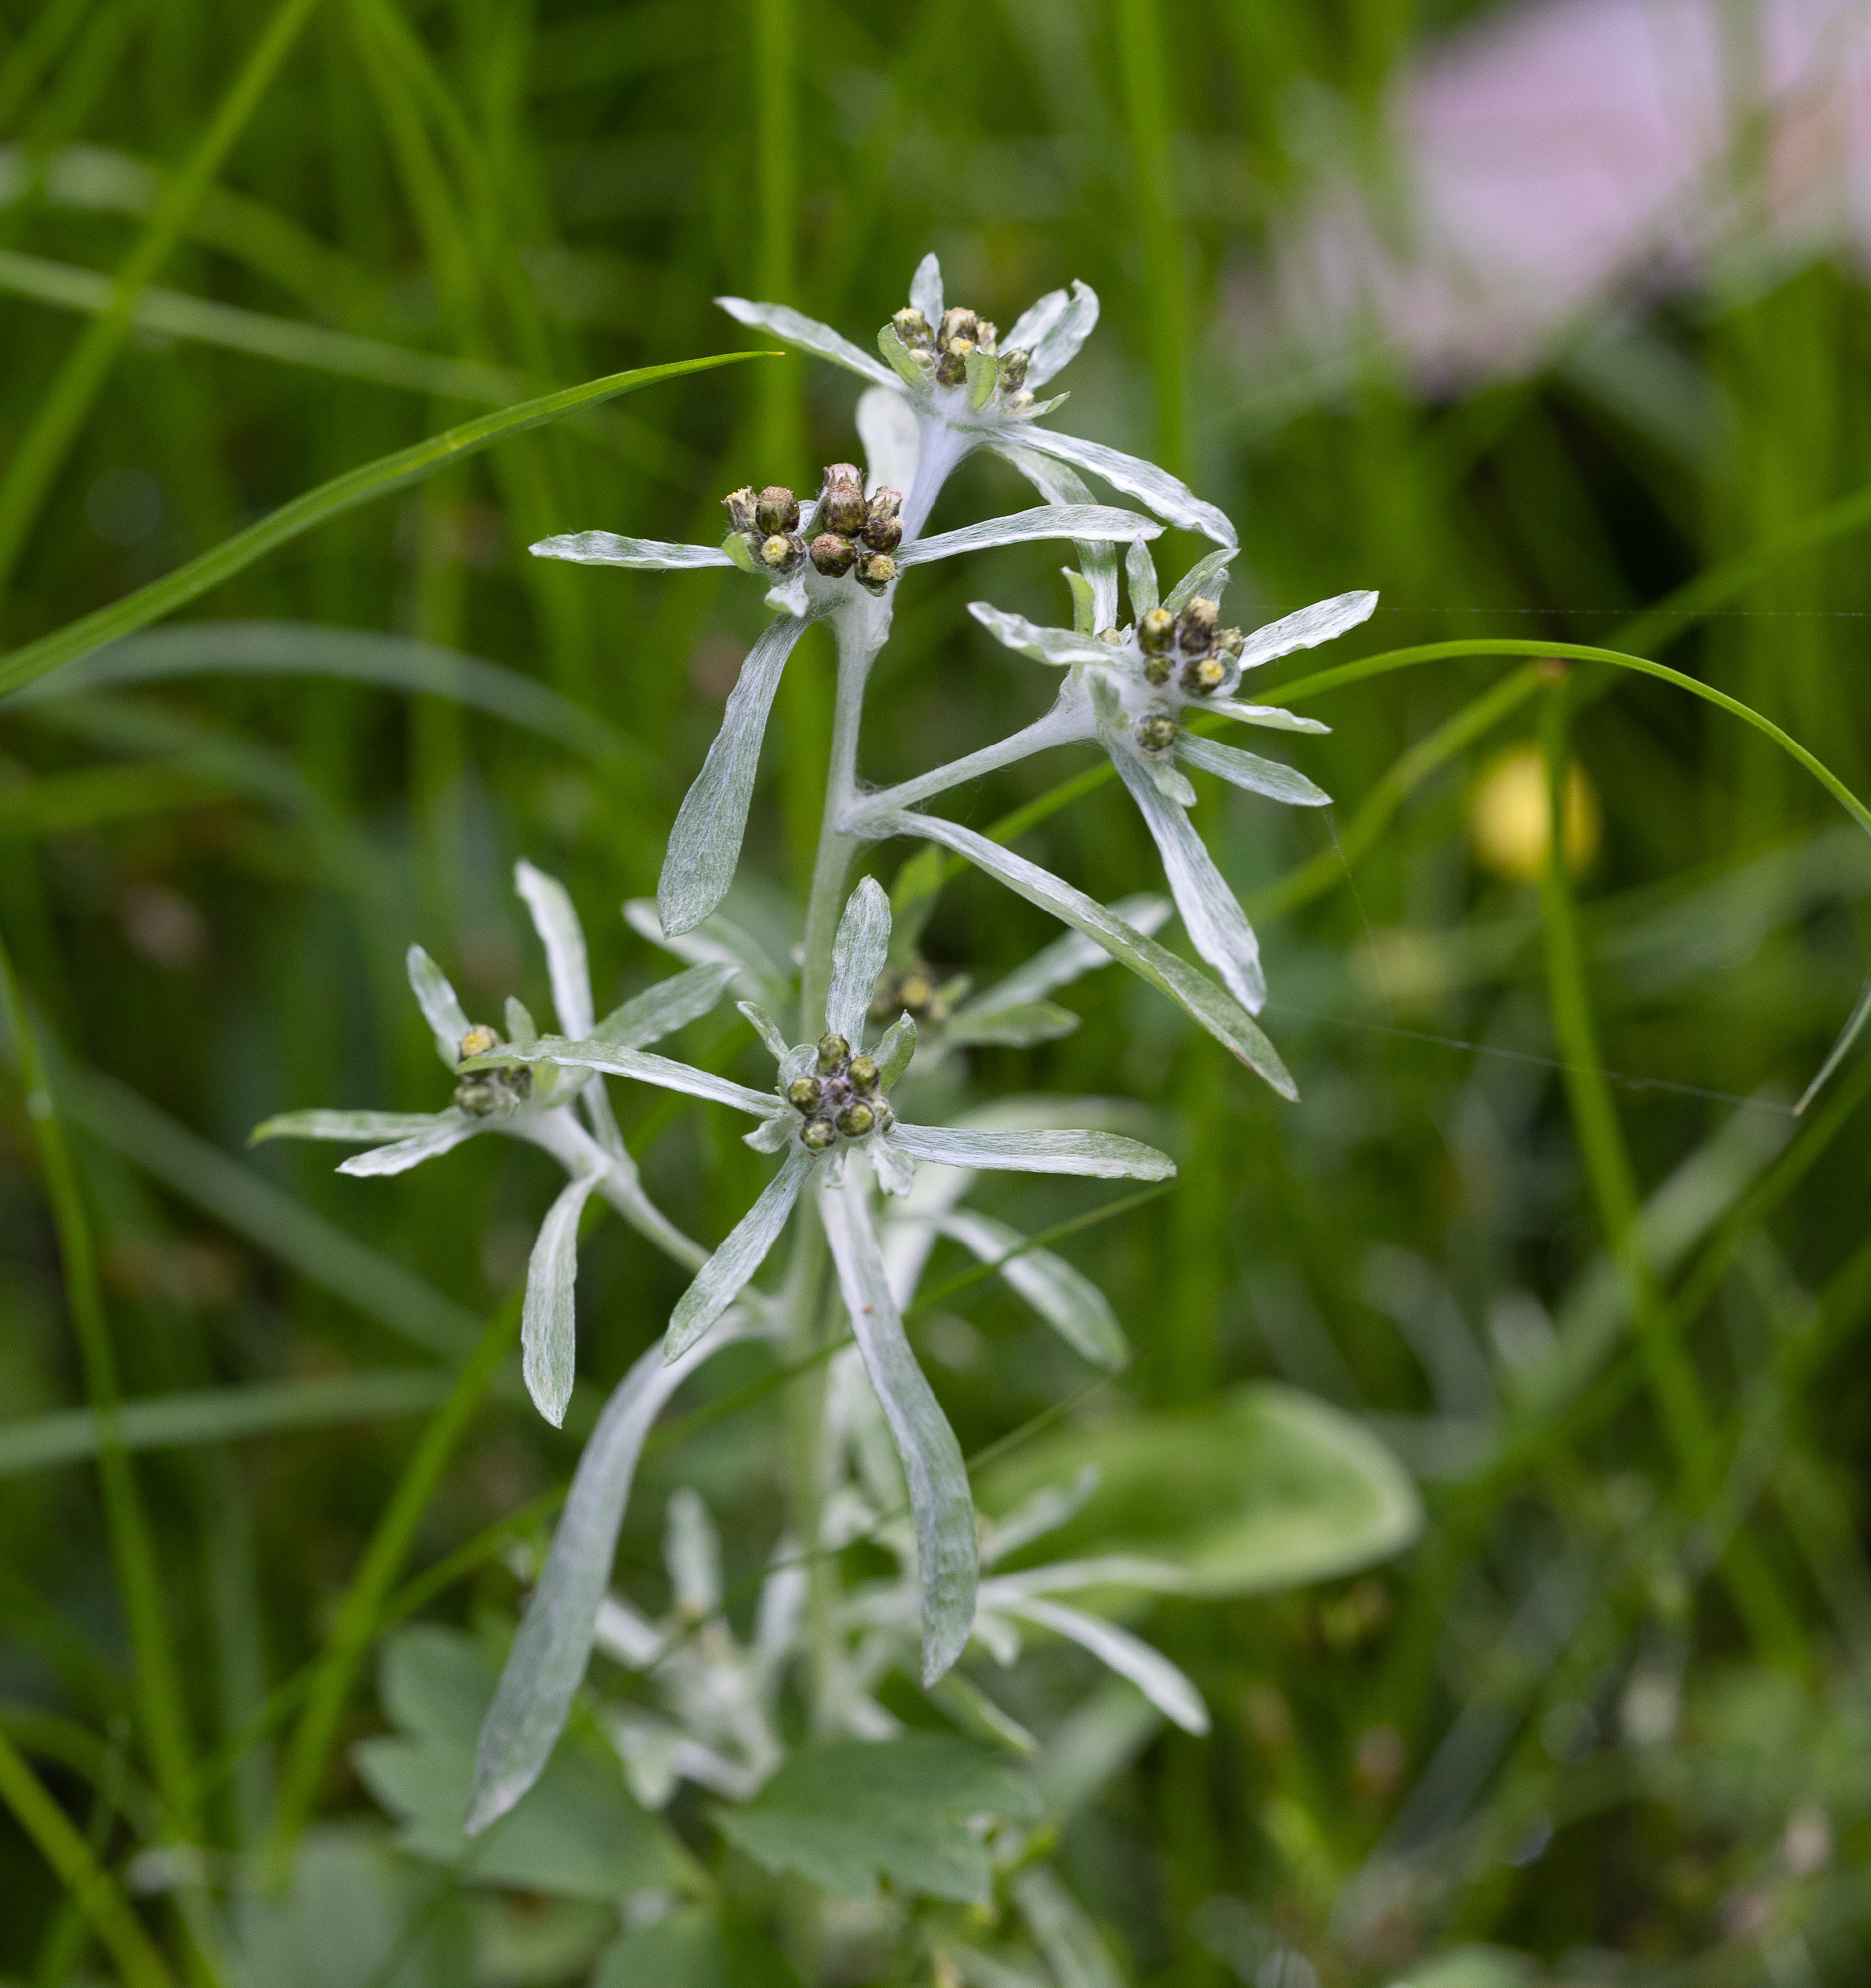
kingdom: Plantae
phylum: Tracheophyta
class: Magnoliopsida
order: Asterales
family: Asteraceae
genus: Gnaphalium
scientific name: Gnaphalium uliginosum
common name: Marsh cudweed
